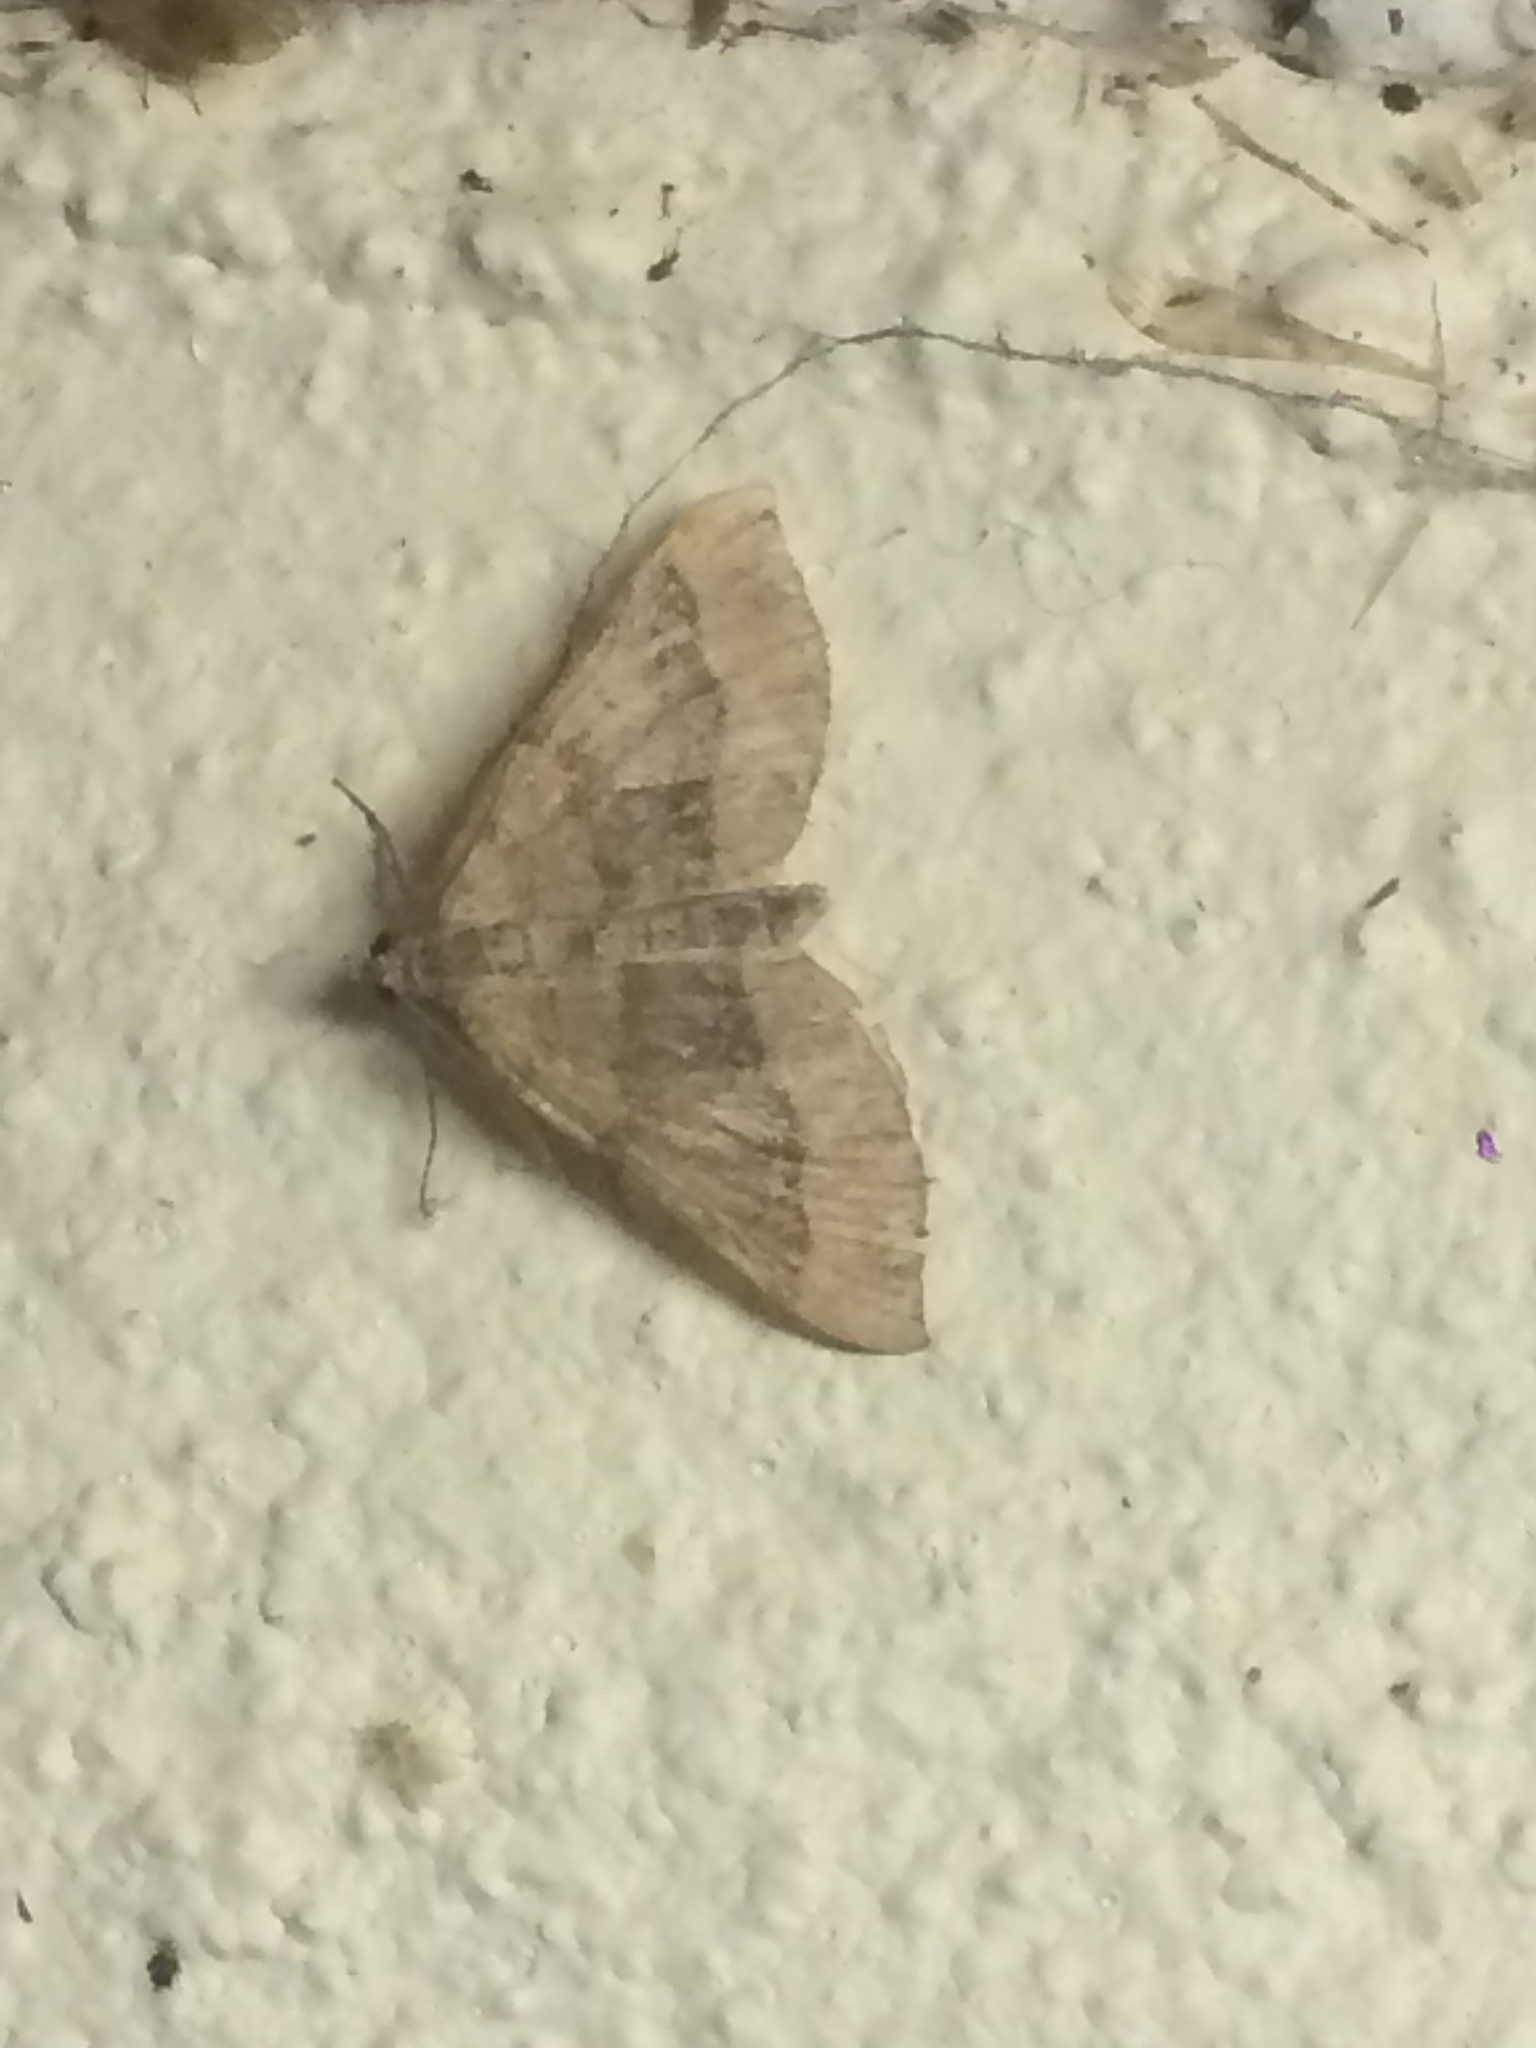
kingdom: Animalia
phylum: Arthropoda
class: Insecta
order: Lepidoptera
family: Geometridae
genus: Scotopteryx
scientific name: Scotopteryx chenopodiata
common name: Shaded broad-bar
